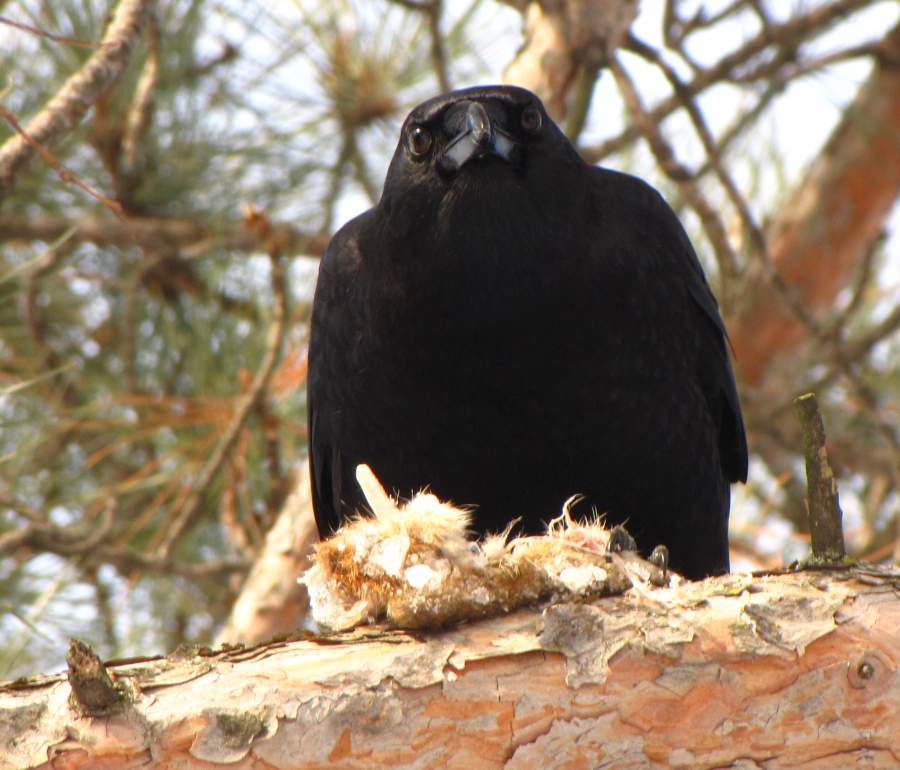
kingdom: Animalia
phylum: Chordata
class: Aves
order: Passeriformes
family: Corvidae
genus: Corvus
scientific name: Corvus brachyrhynchos
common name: American crow
